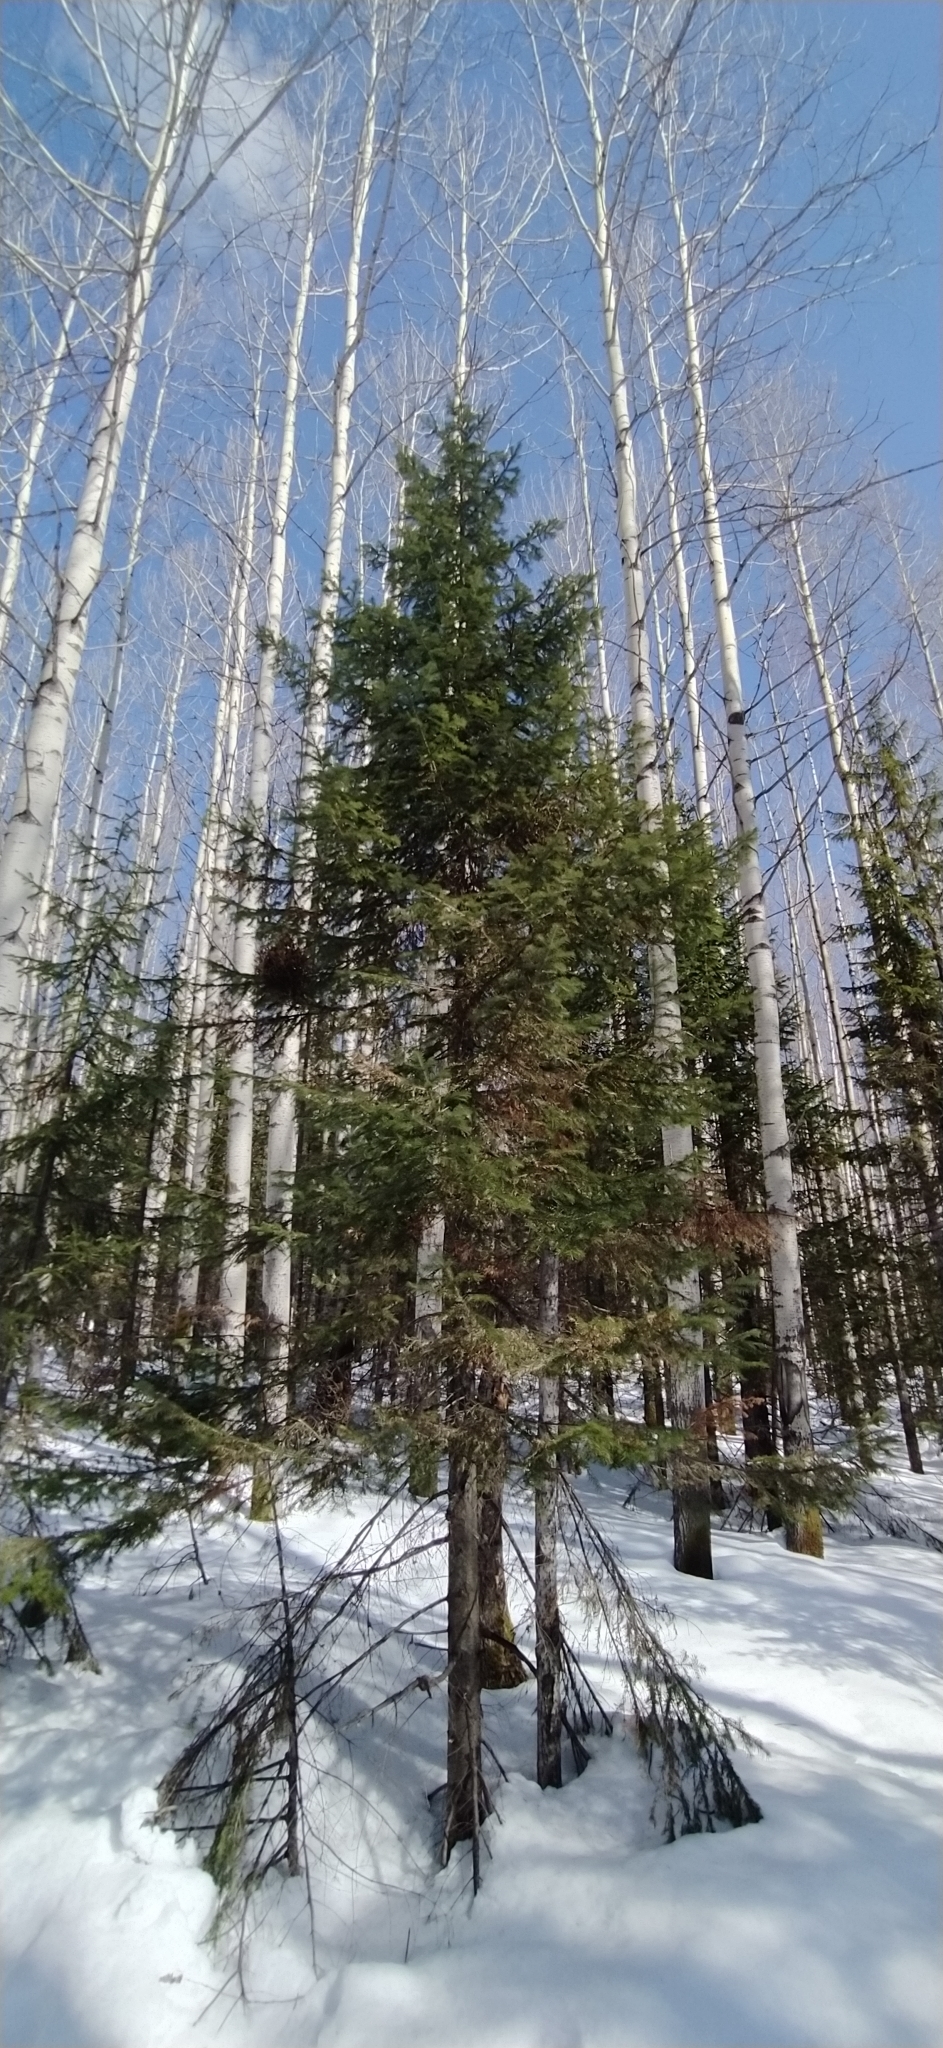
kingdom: Plantae
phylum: Tracheophyta
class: Pinopsida
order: Pinales
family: Pinaceae
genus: Abies
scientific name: Abies sibirica
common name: Siberian fir
